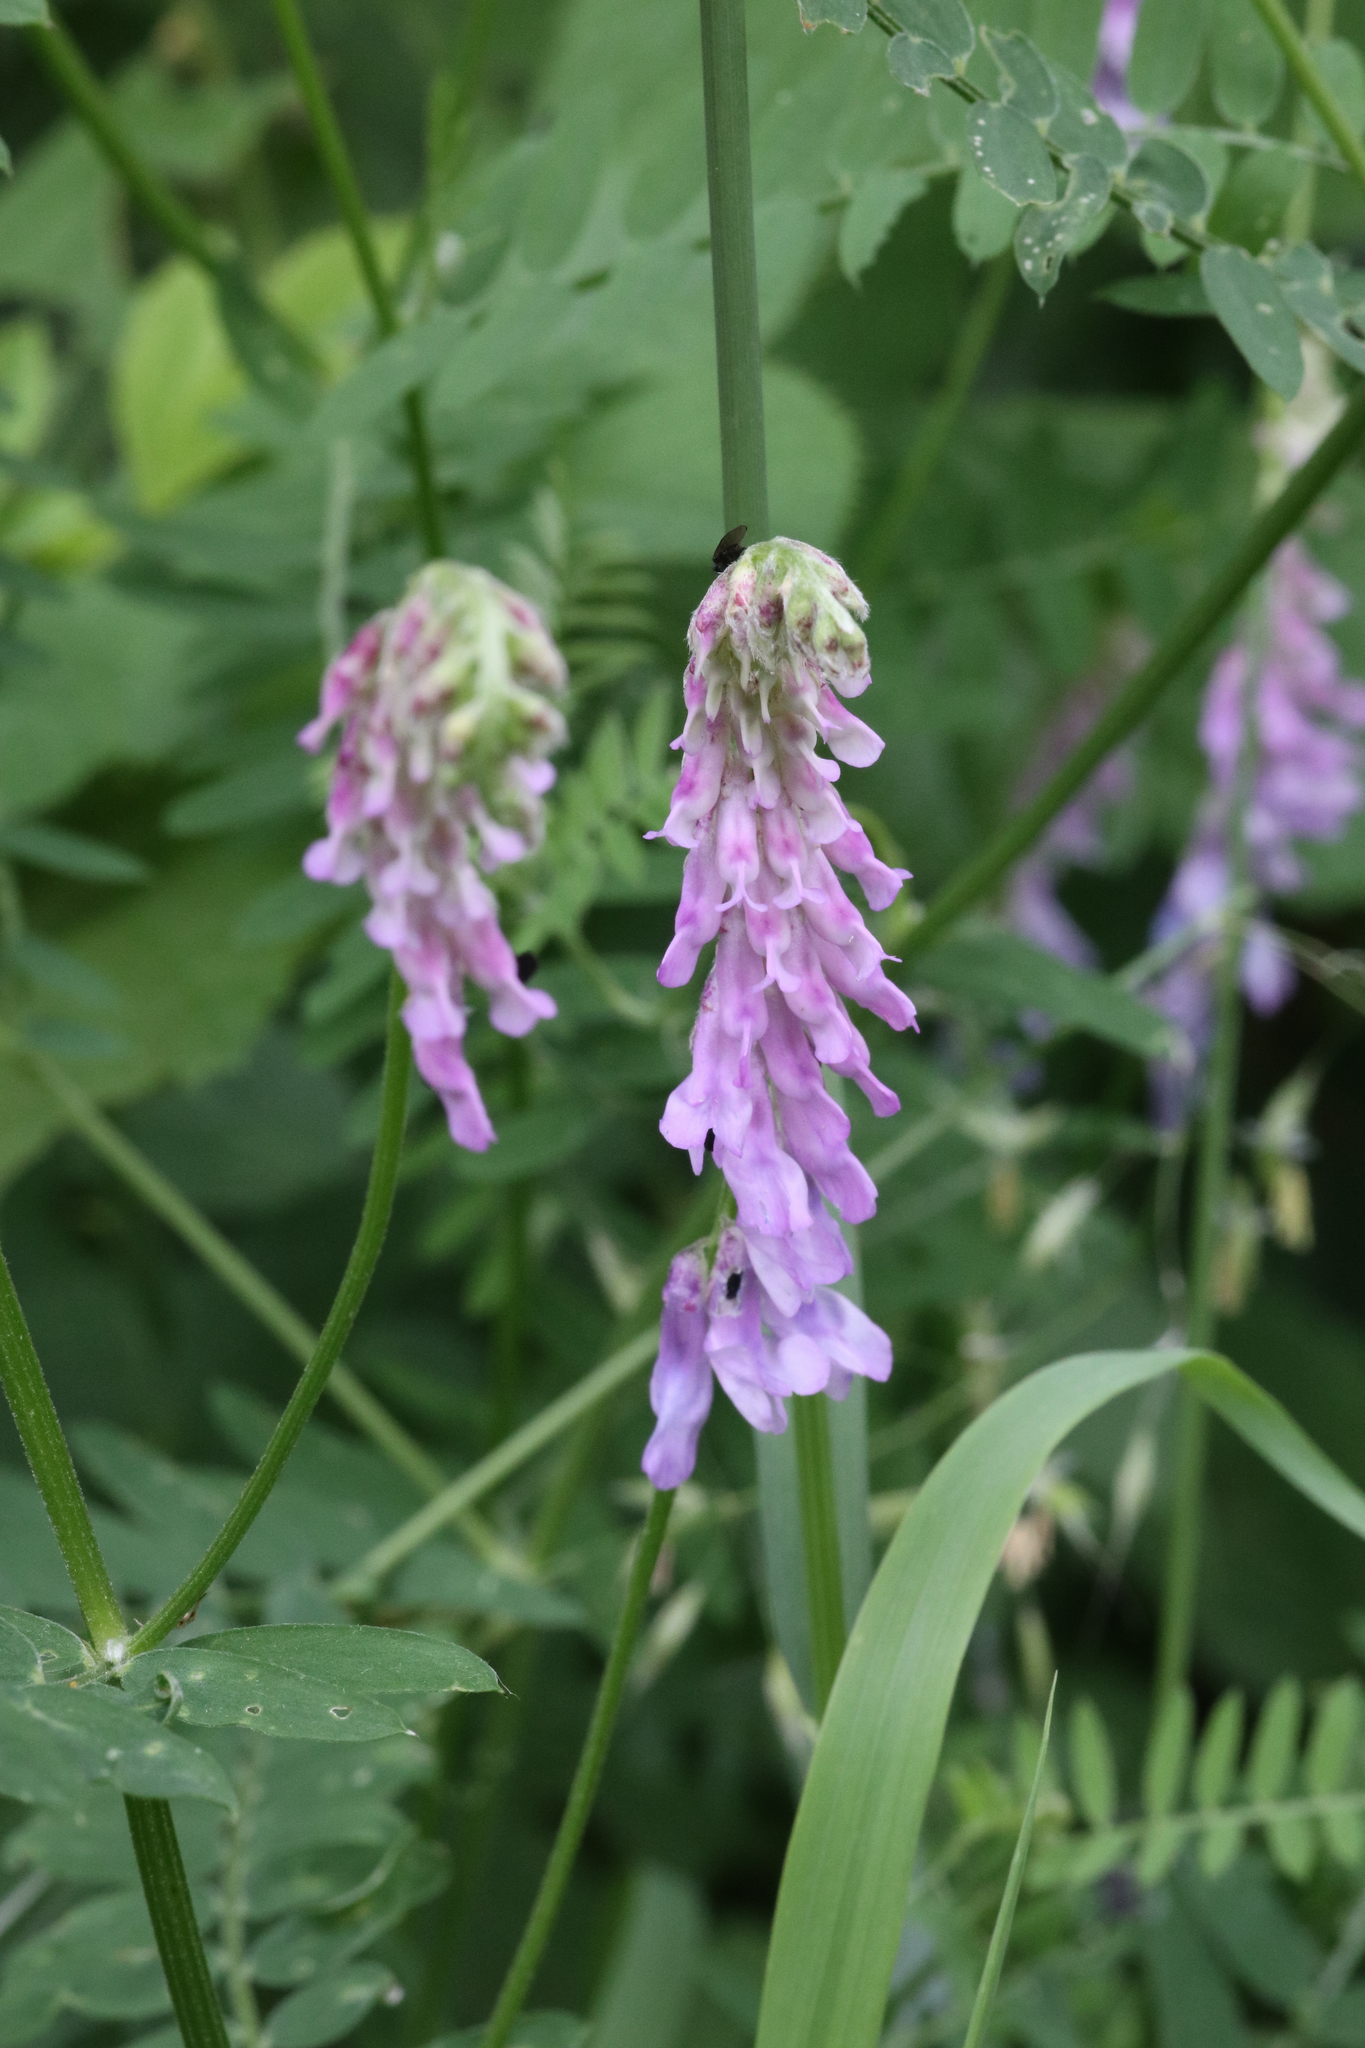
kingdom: Plantae
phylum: Tracheophyta
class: Magnoliopsida
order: Fabales
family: Fabaceae
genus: Vicia
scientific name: Vicia cracca
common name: Bird vetch
